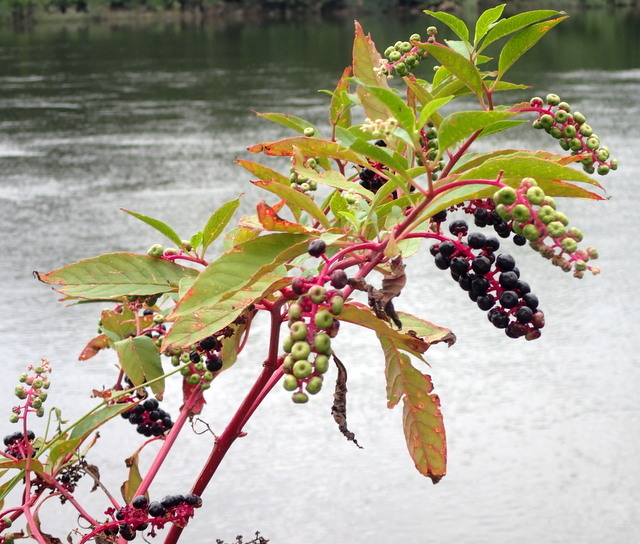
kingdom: Plantae
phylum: Tracheophyta
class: Magnoliopsida
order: Caryophyllales
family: Phytolaccaceae
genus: Phytolacca
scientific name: Phytolacca americana
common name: American pokeweed
